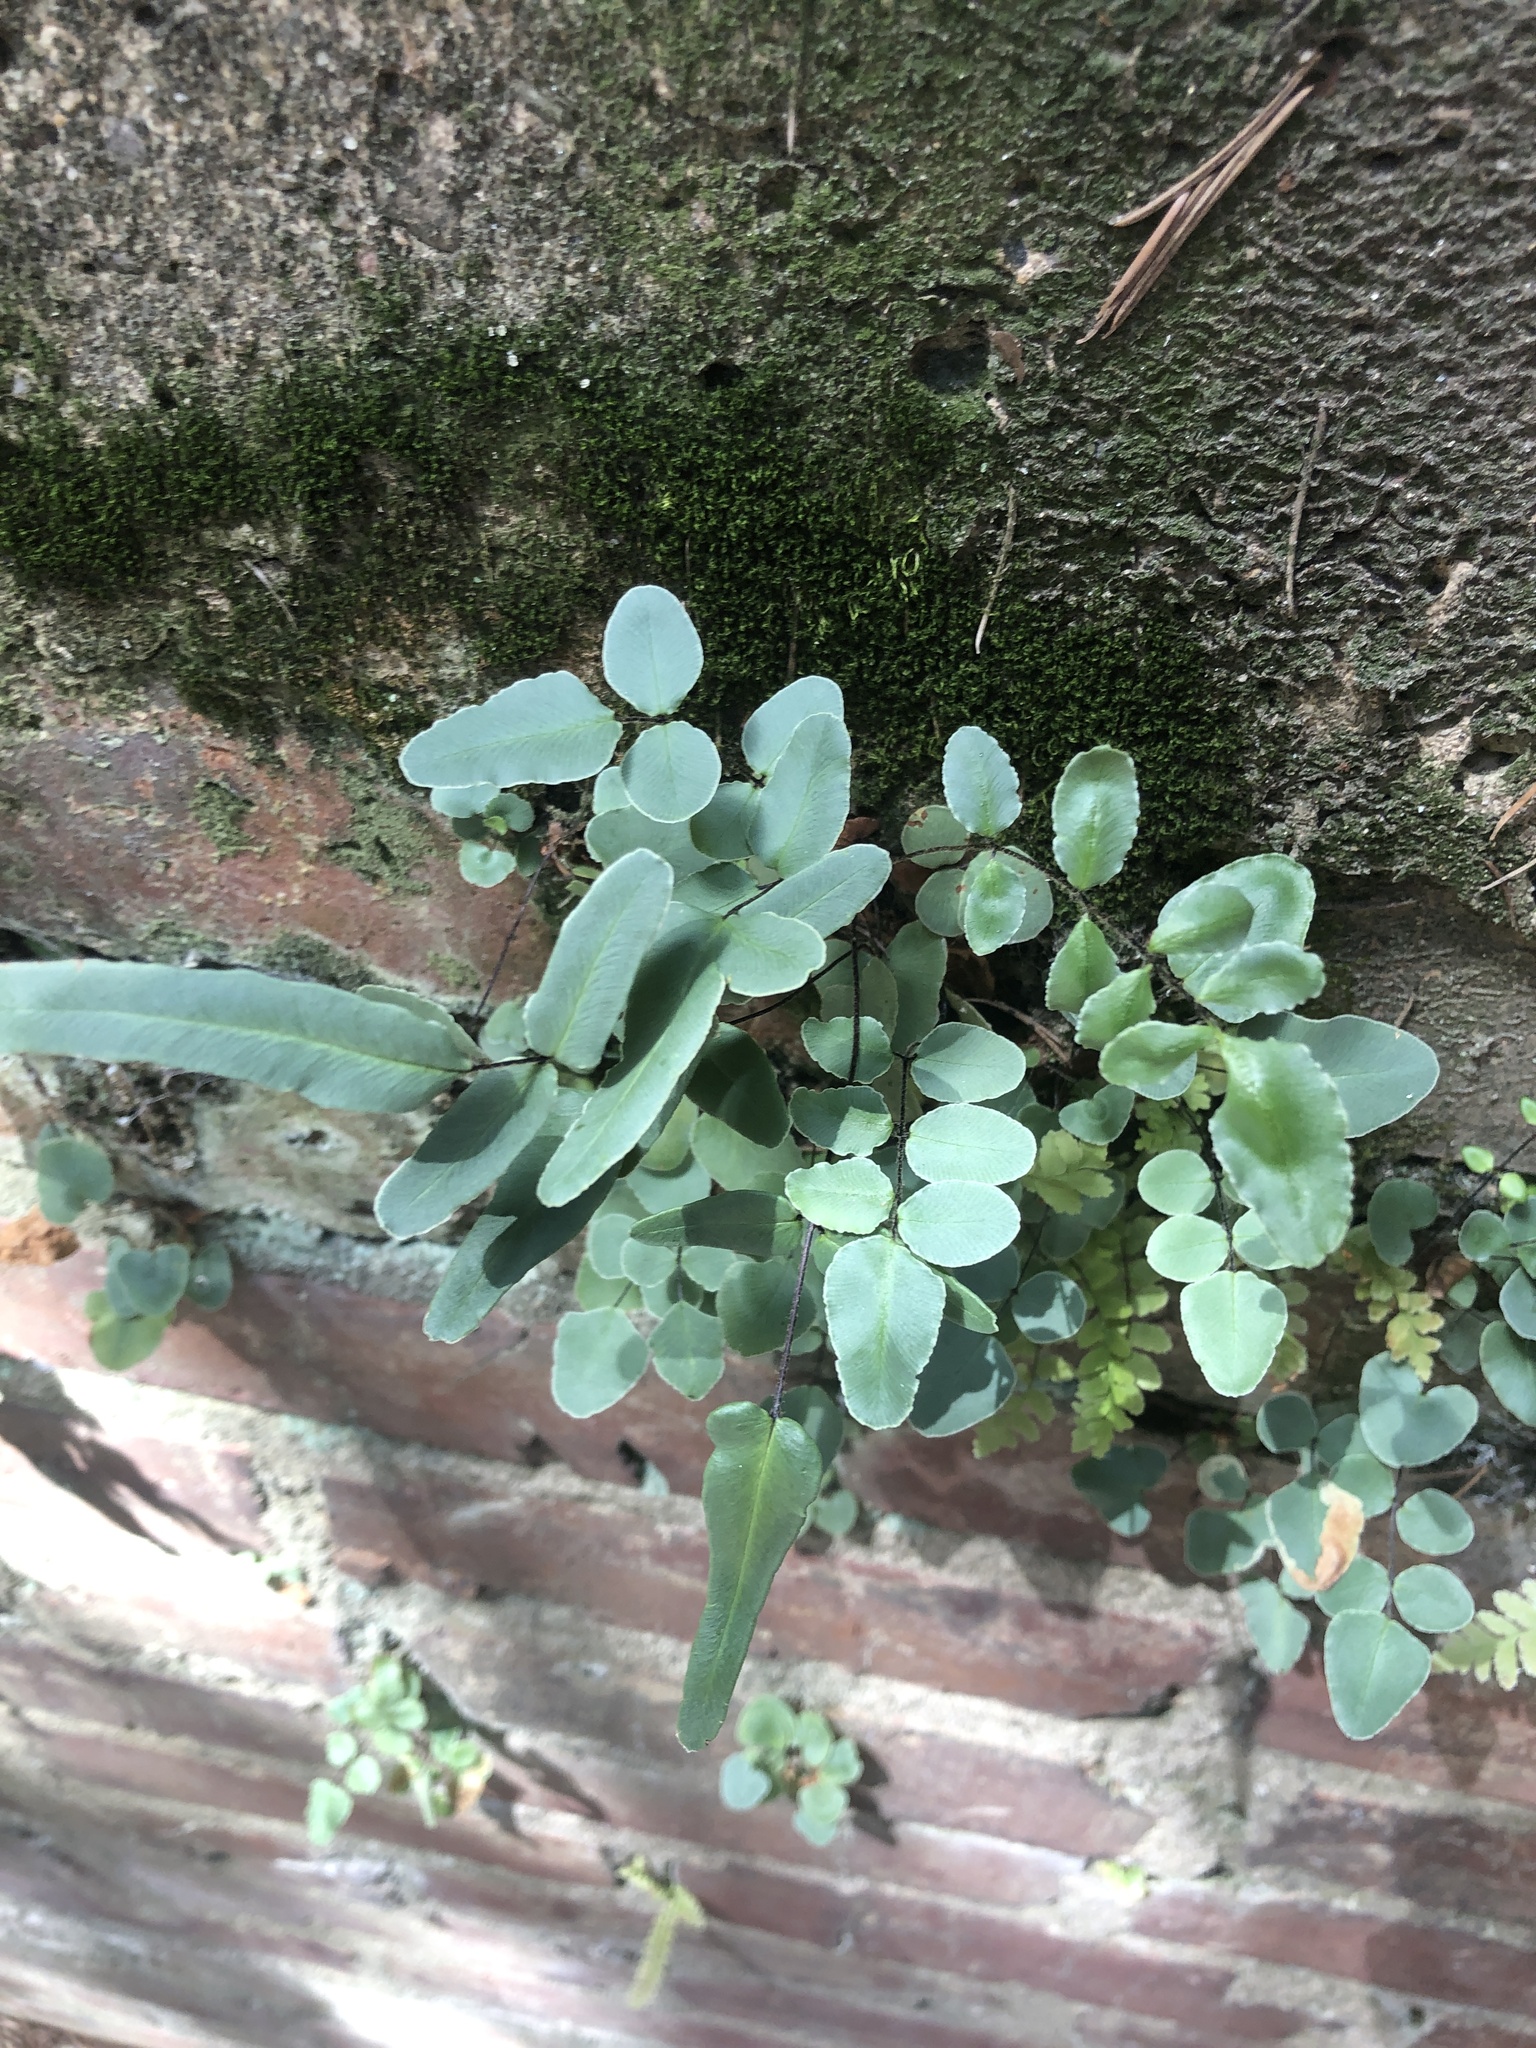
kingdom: Plantae
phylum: Tracheophyta
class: Polypodiopsida
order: Polypodiales
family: Pteridaceae
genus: Pellaea
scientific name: Pellaea atropurpurea
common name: Hairy cliffbrake
